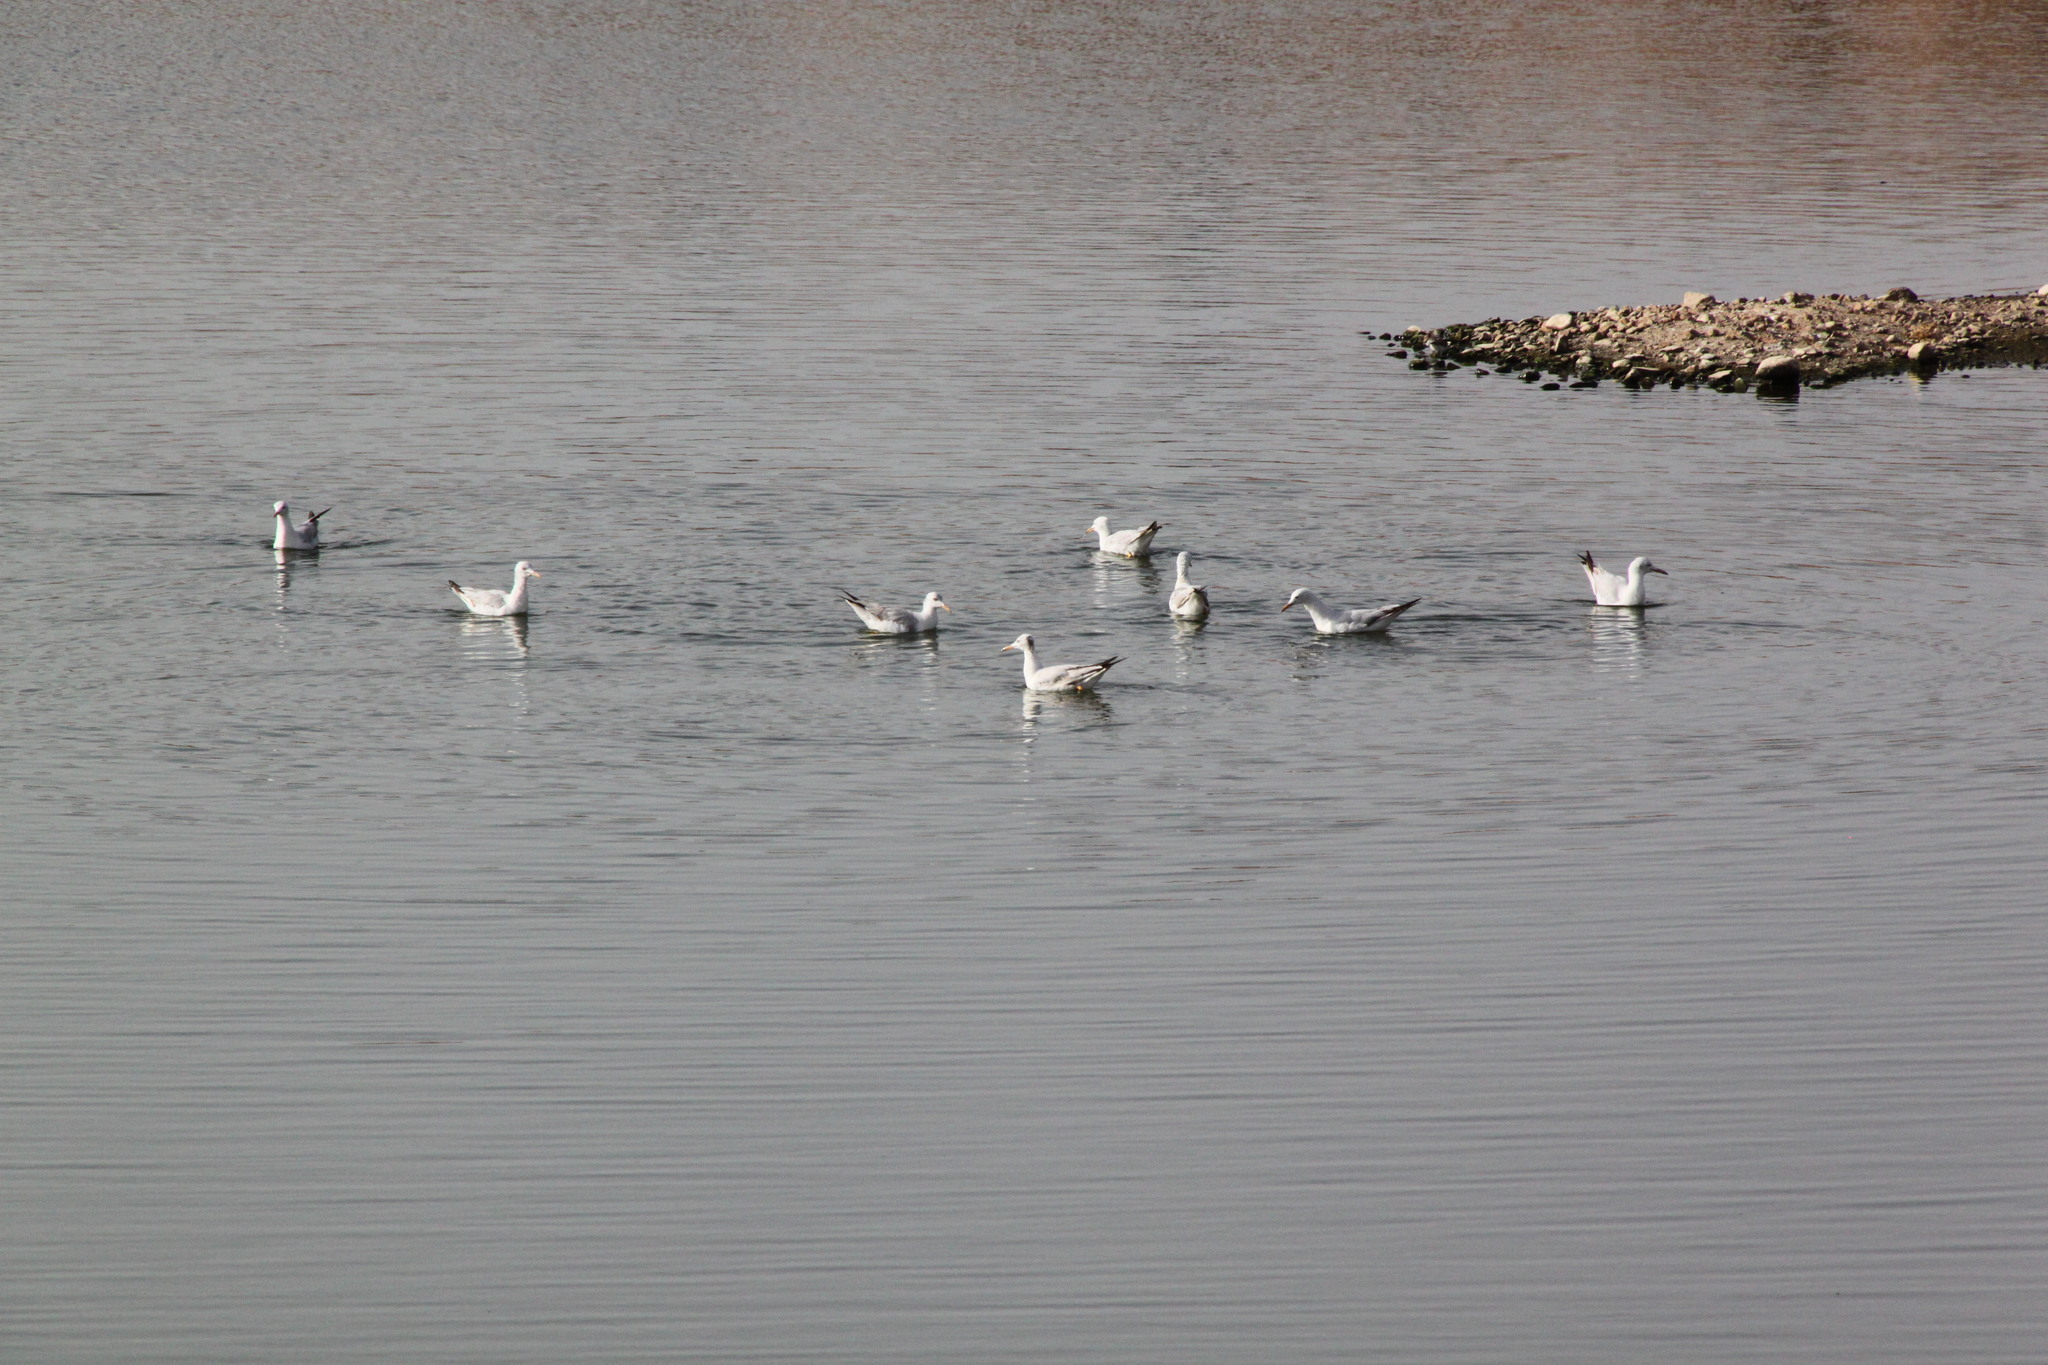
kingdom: Animalia
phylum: Chordata
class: Aves
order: Charadriiformes
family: Laridae
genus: Chroicocephalus
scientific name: Chroicocephalus genei
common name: Slender-billed gull
